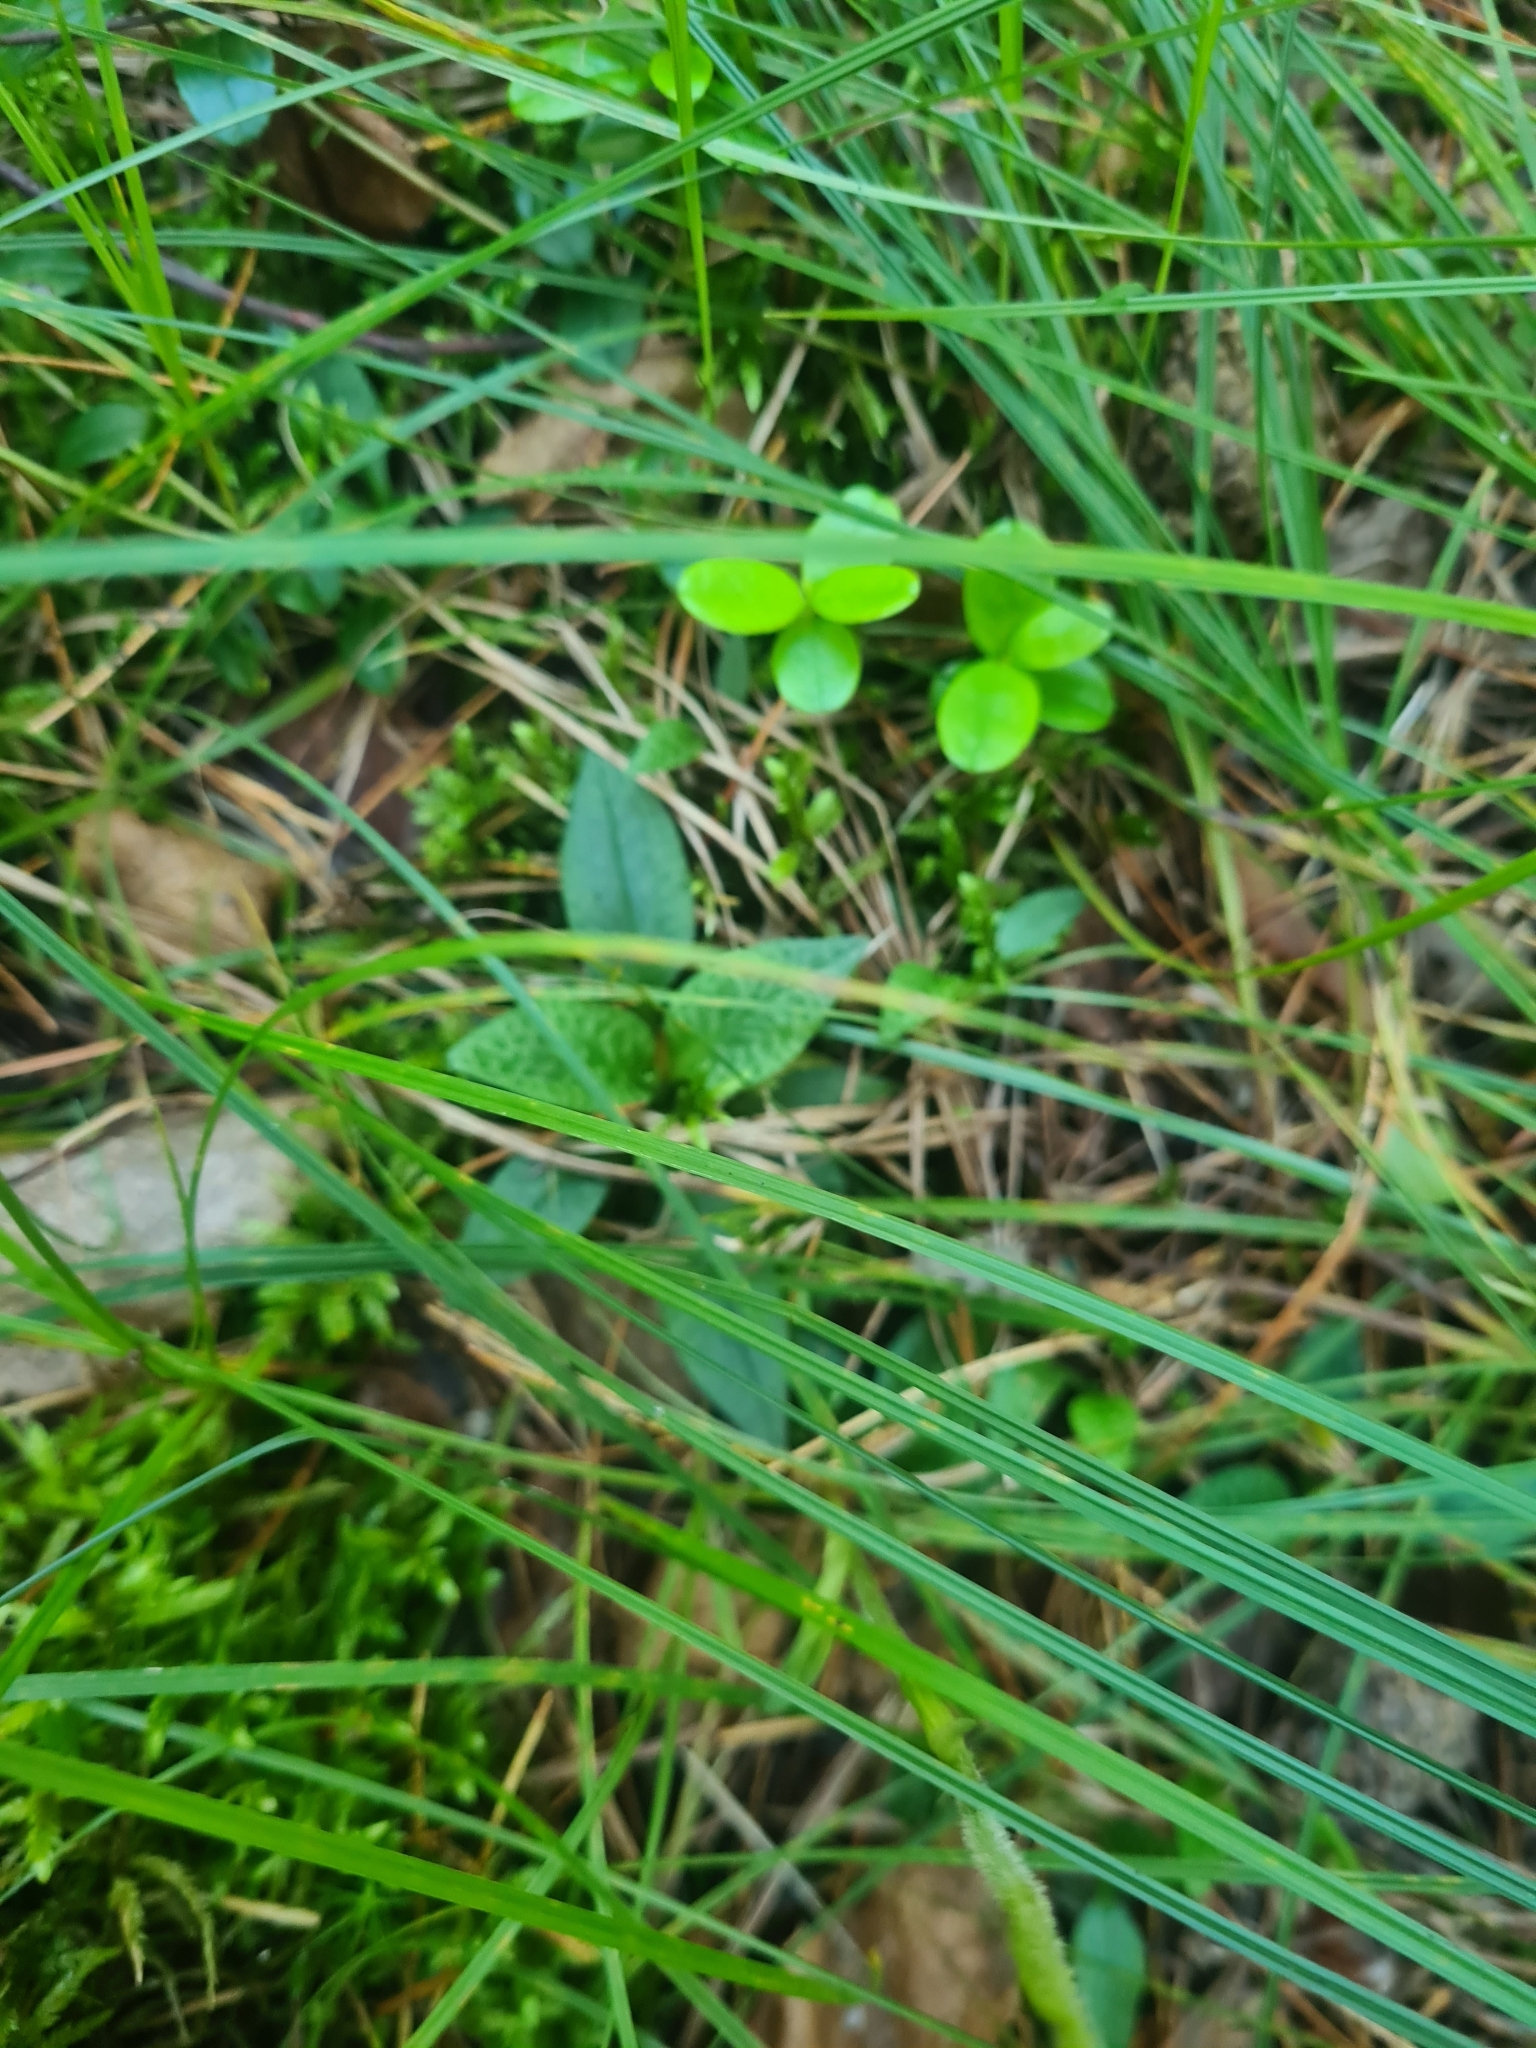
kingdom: Plantae
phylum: Tracheophyta
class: Liliopsida
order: Asparagales
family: Orchidaceae
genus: Goodyera
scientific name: Goodyera repens
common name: Creeping lady's-tresses
